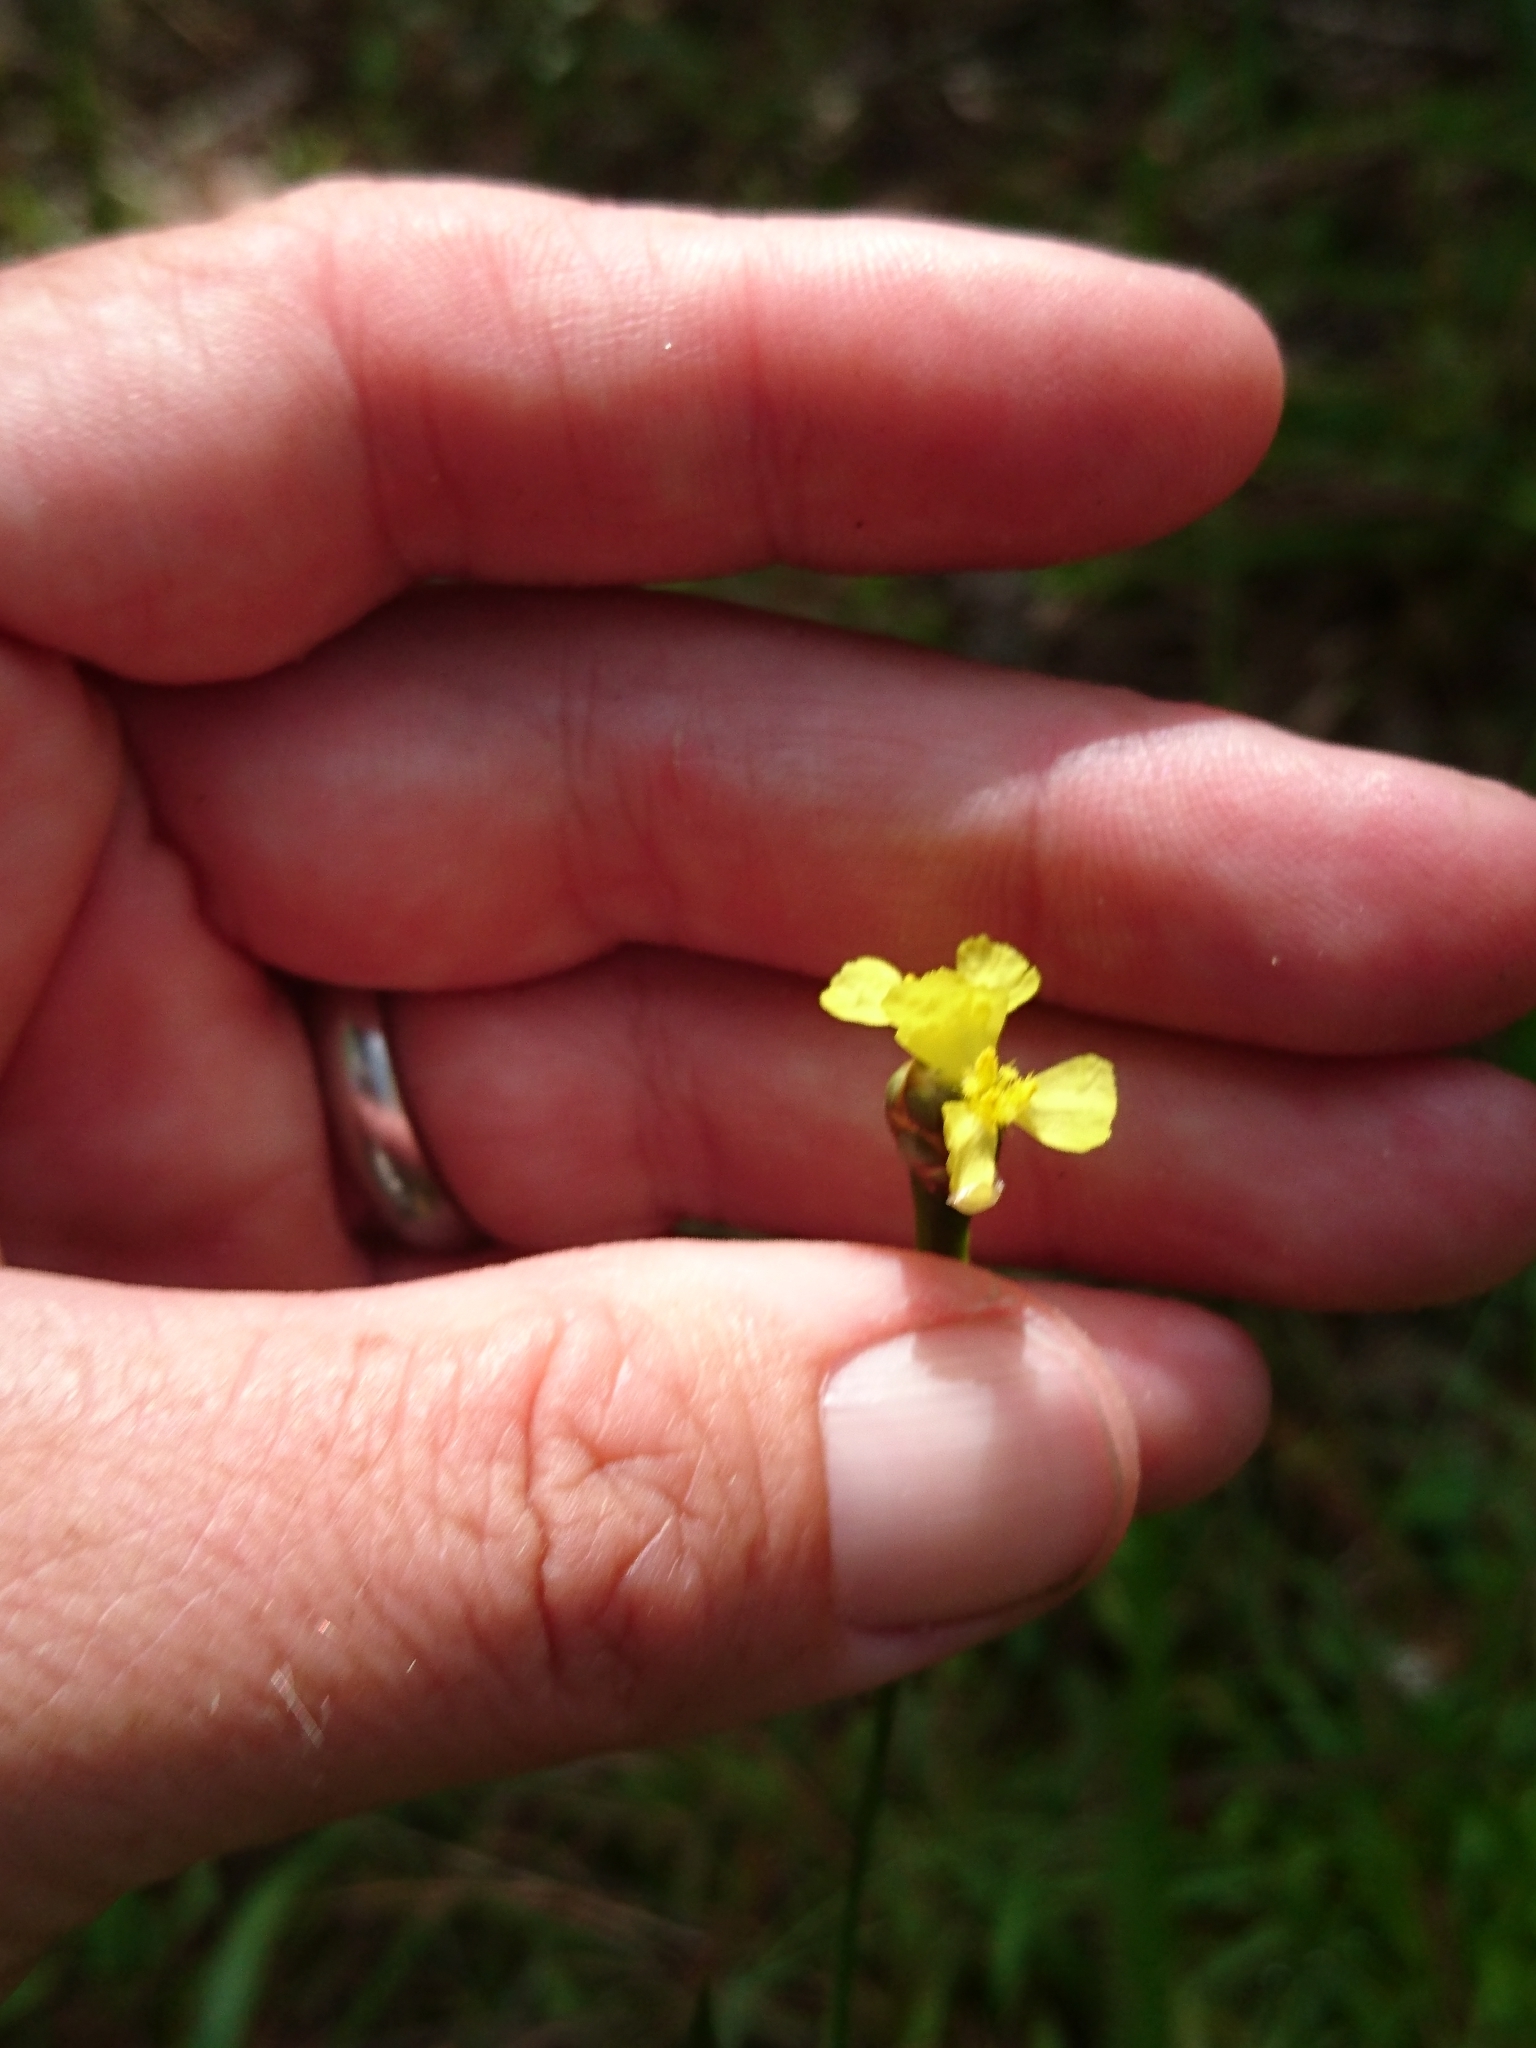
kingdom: Plantae
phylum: Tracheophyta
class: Liliopsida
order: Poales
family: Xyridaceae
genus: Xyris
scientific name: Xyris platylepis
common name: Tall yelloweyed grass
